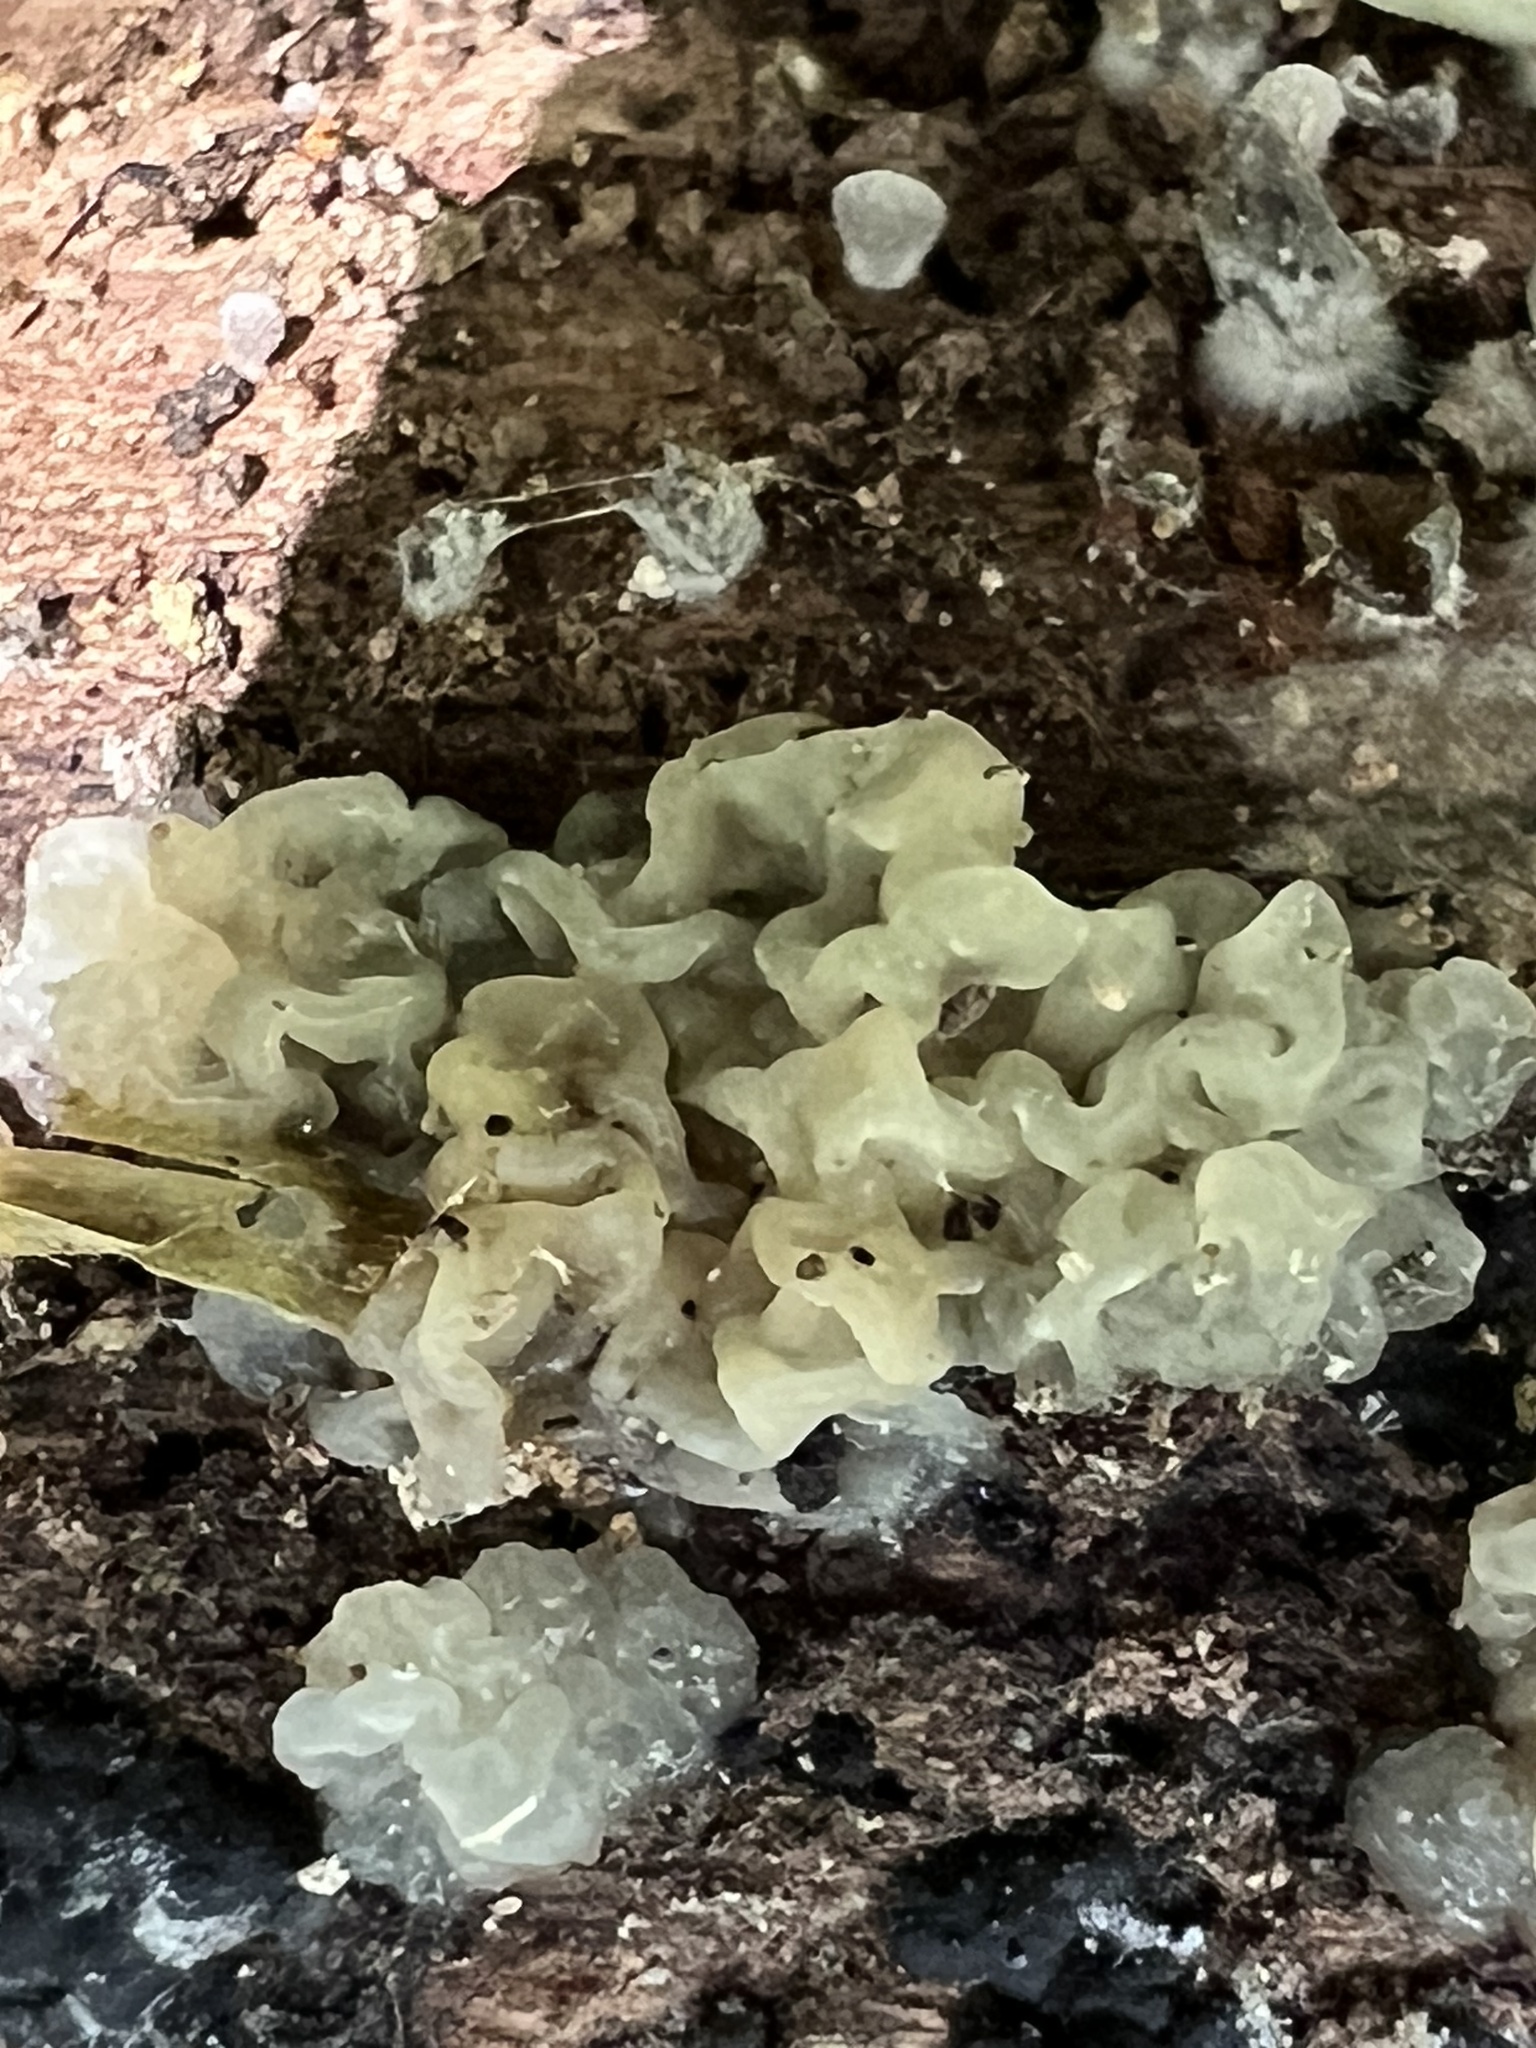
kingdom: Fungi
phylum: Basidiomycota
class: Agaricomycetes
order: Auriculariales
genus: Ductifera
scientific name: Ductifera pululahuana
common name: White jelly fungus
